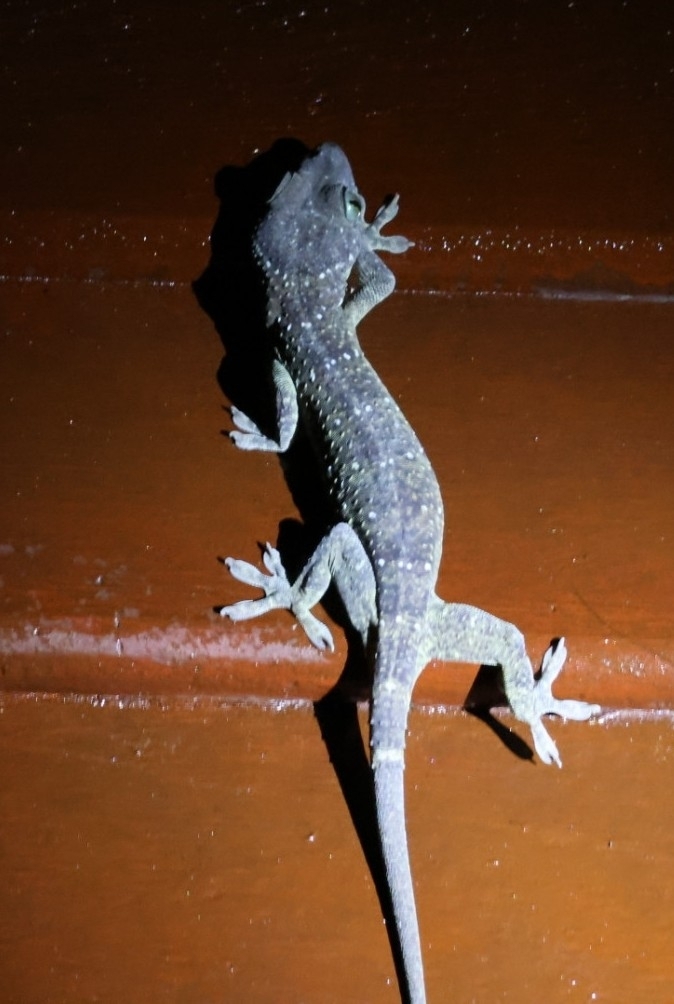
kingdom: Animalia
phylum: Chordata
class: Squamata
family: Gekkonidae
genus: Gekko
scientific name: Gekko hulk
